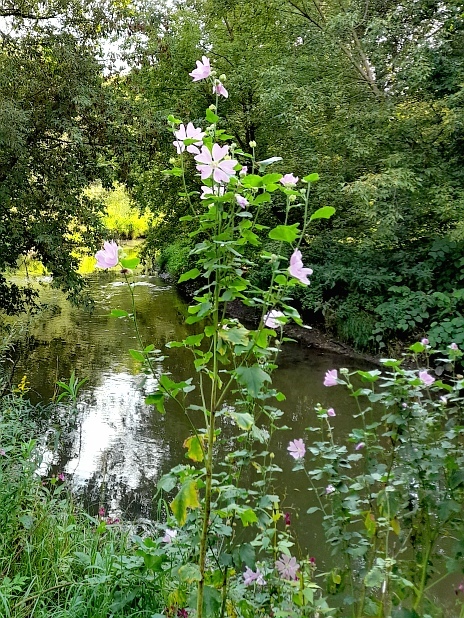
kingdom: Plantae
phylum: Tracheophyta
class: Magnoliopsida
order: Malvales
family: Malvaceae
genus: Malva
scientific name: Malva thuringiaca
